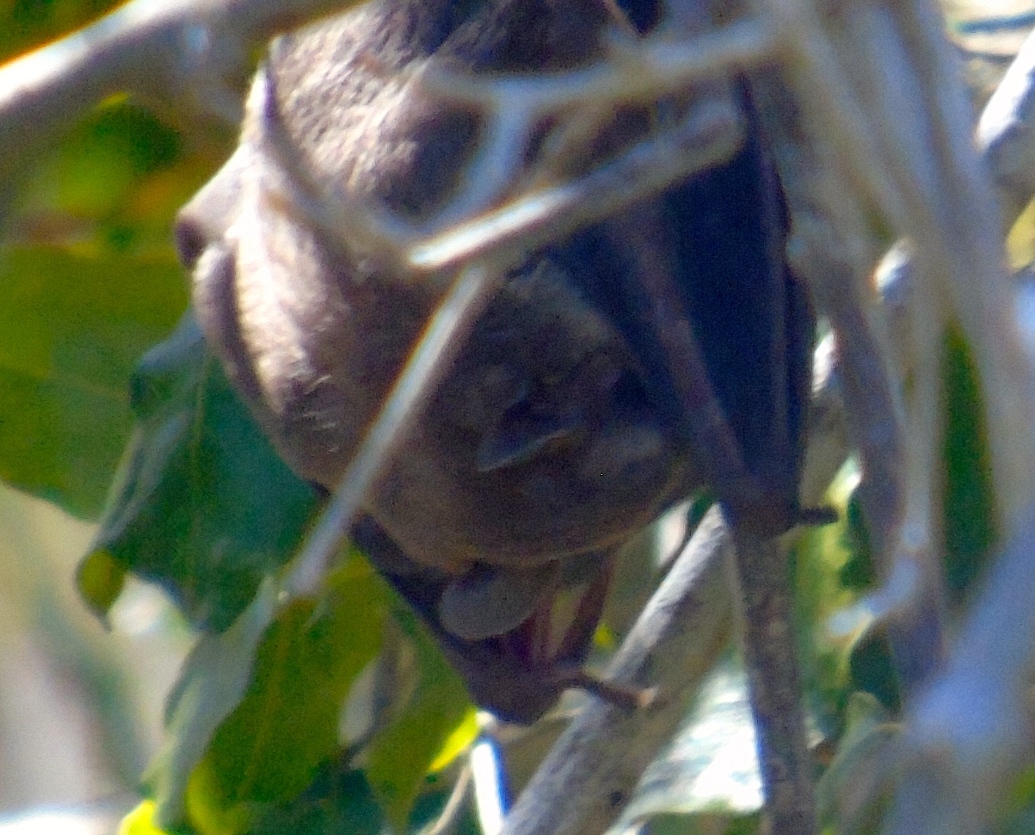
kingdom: Animalia
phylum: Chordata
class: Mammalia
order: Chiroptera
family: Phyllostomidae
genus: Artibeus
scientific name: Artibeus
